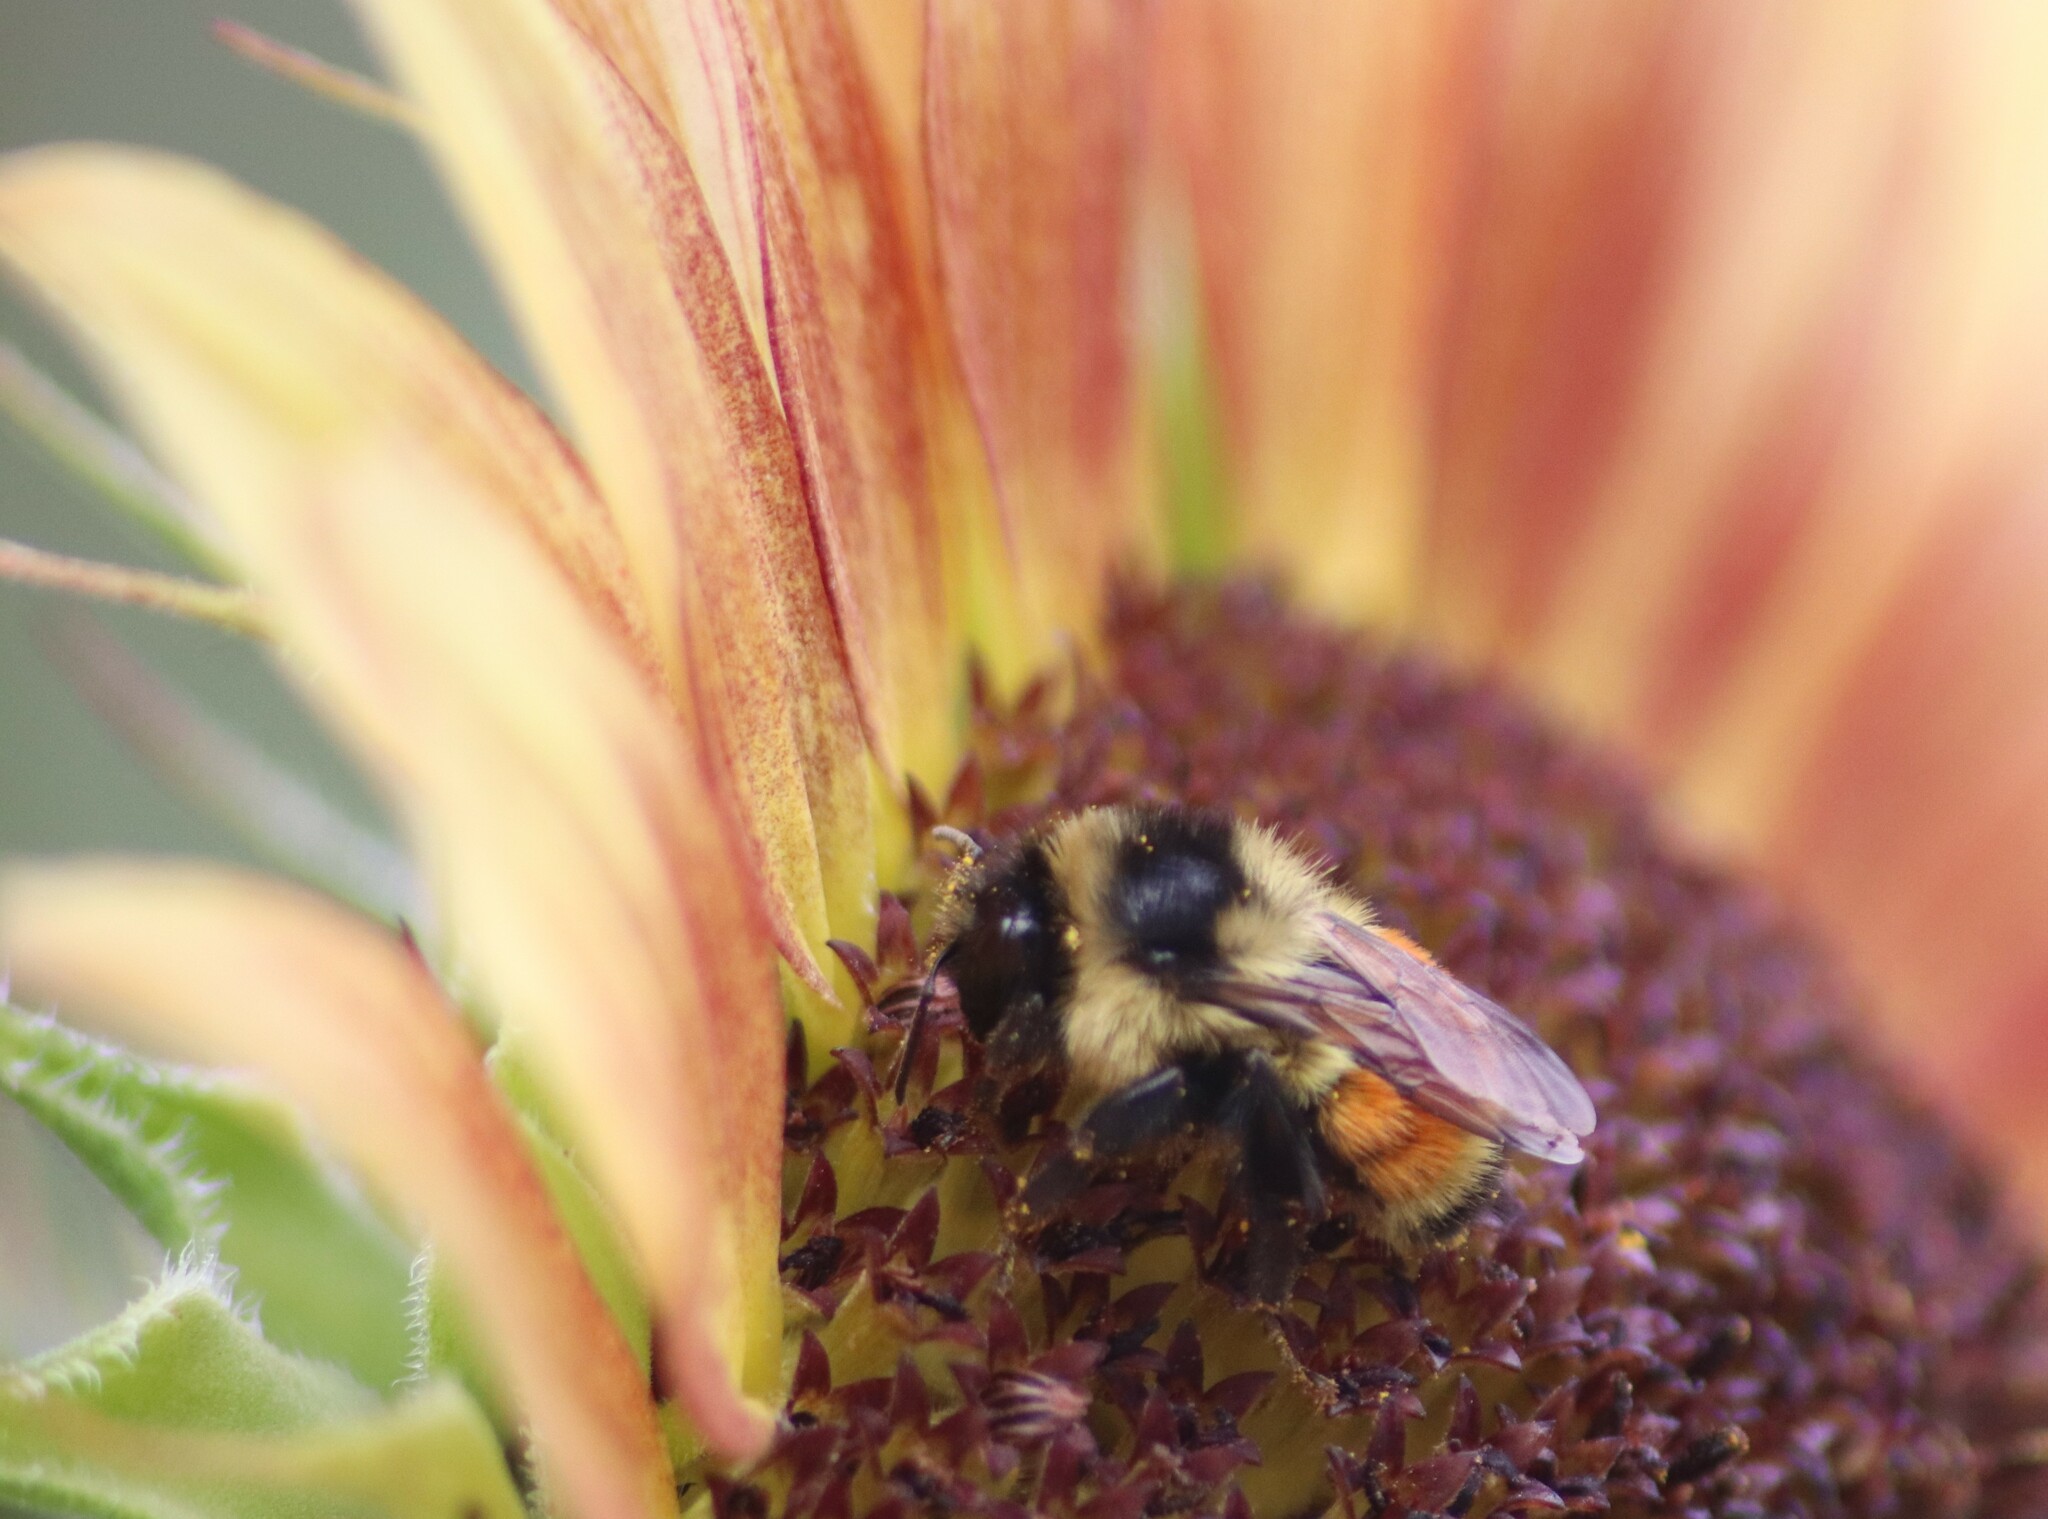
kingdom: Animalia
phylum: Arthropoda
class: Insecta
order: Hymenoptera
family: Apidae
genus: Bombus
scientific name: Bombus ternarius
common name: Tri-colored bumble bee
